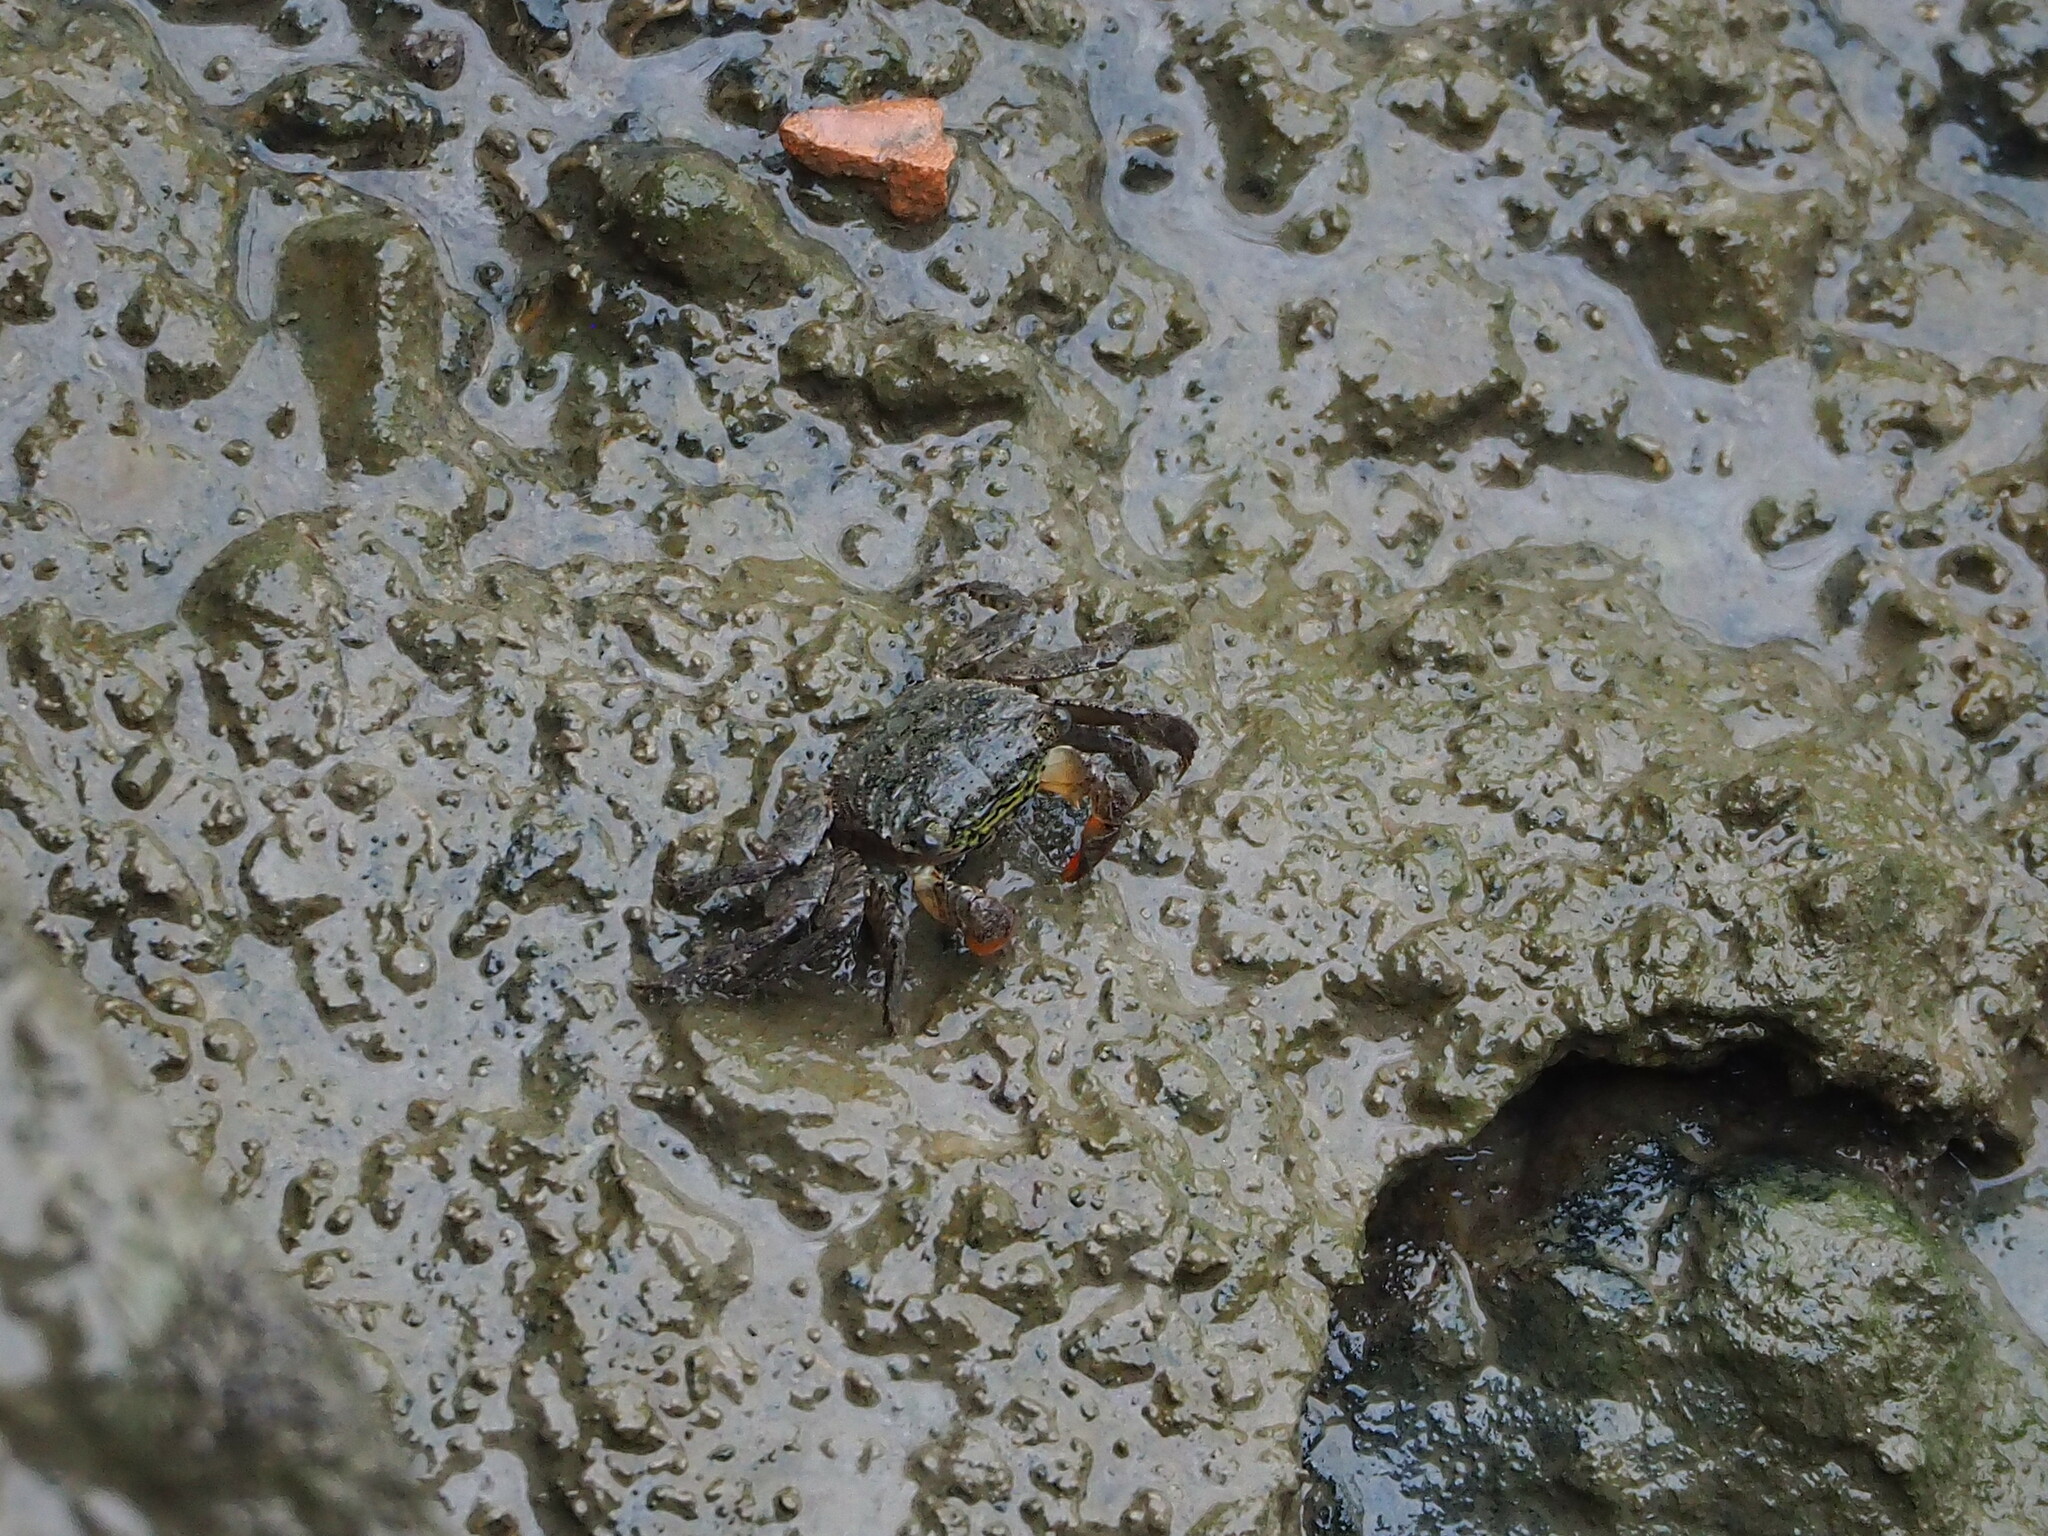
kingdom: Animalia
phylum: Arthropoda
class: Malacostraca
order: Decapoda
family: Sesarmidae
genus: Parasesarma
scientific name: Parasesarma insulare
